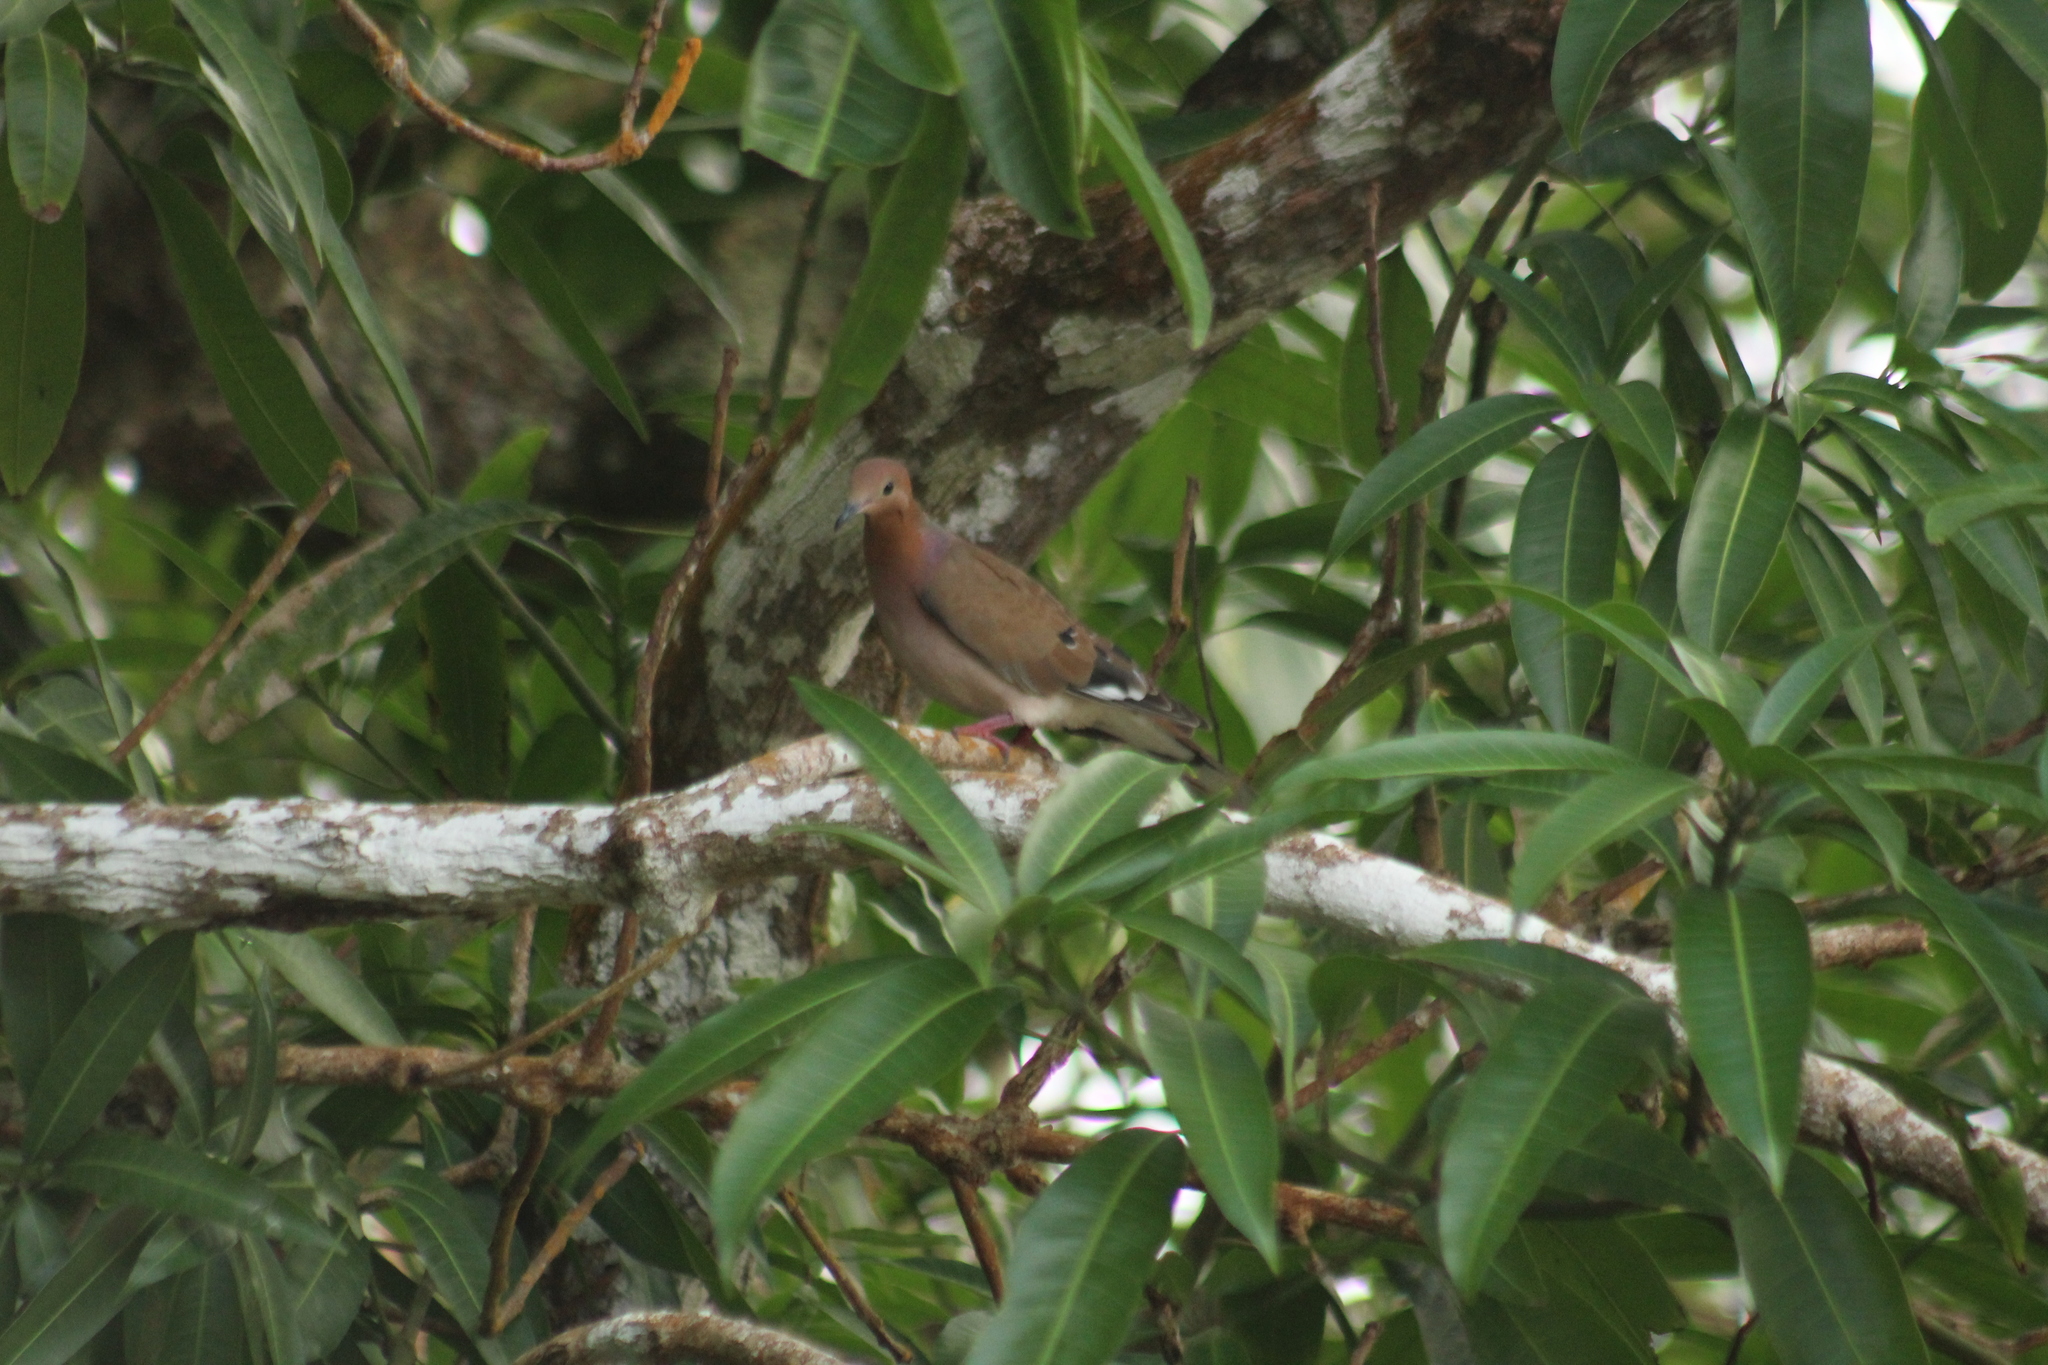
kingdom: Animalia
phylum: Chordata
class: Aves
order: Columbiformes
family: Columbidae
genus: Zenaida
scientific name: Zenaida aurita
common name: Zenaida dove
